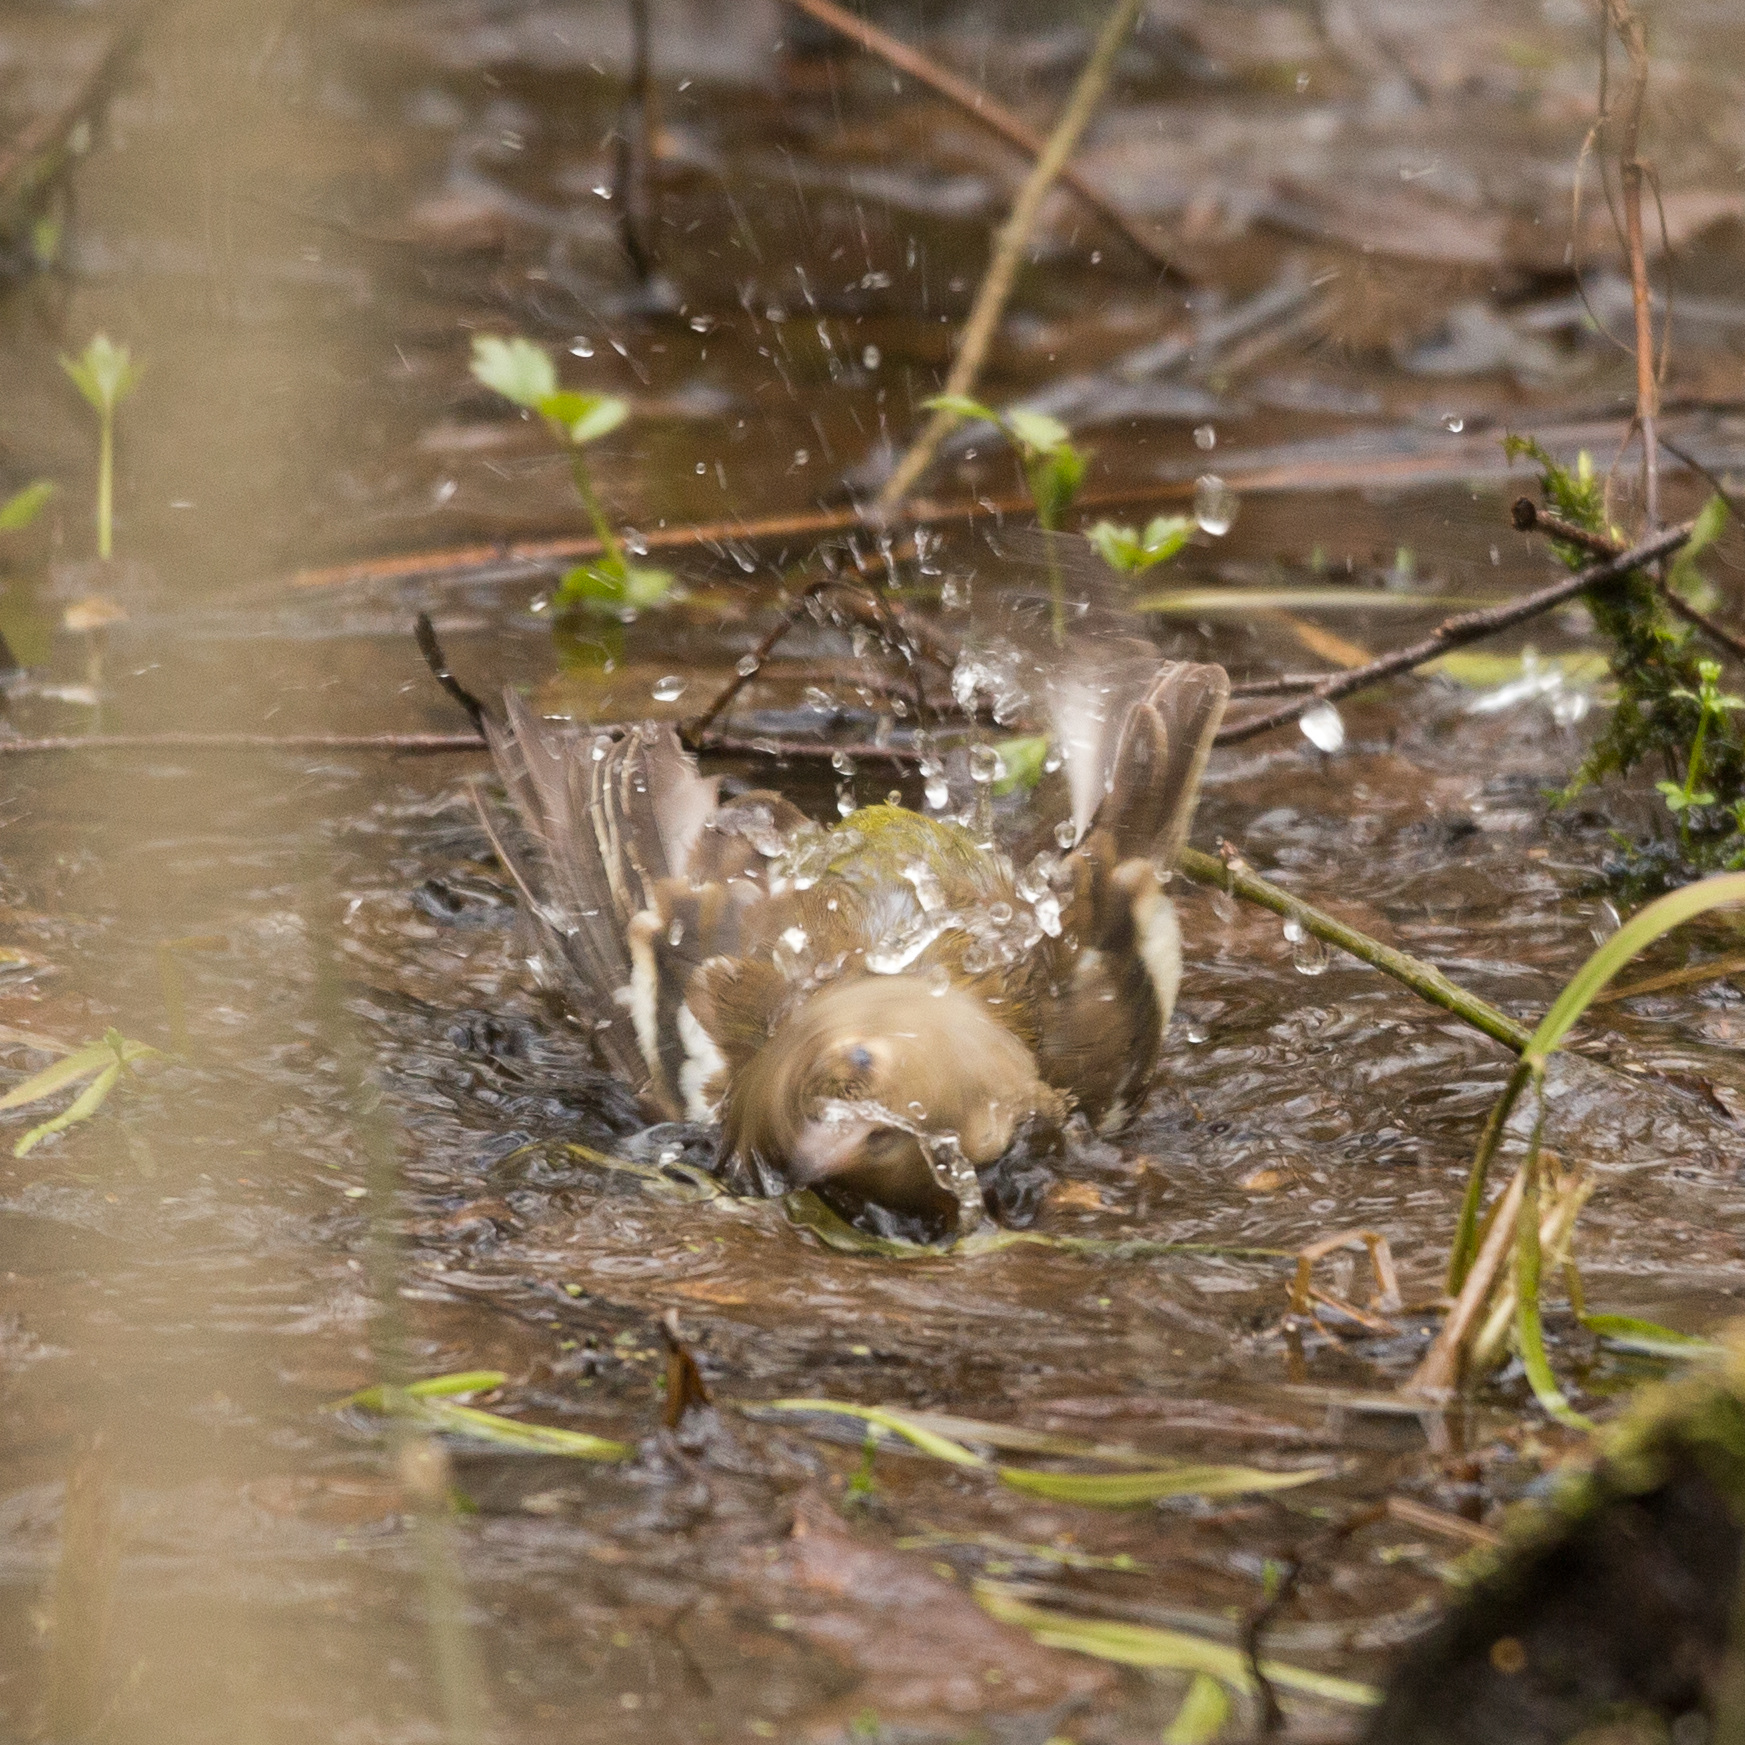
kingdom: Animalia
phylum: Chordata
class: Aves
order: Passeriformes
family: Fringillidae
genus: Fringilla
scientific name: Fringilla coelebs
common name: Common chaffinch
